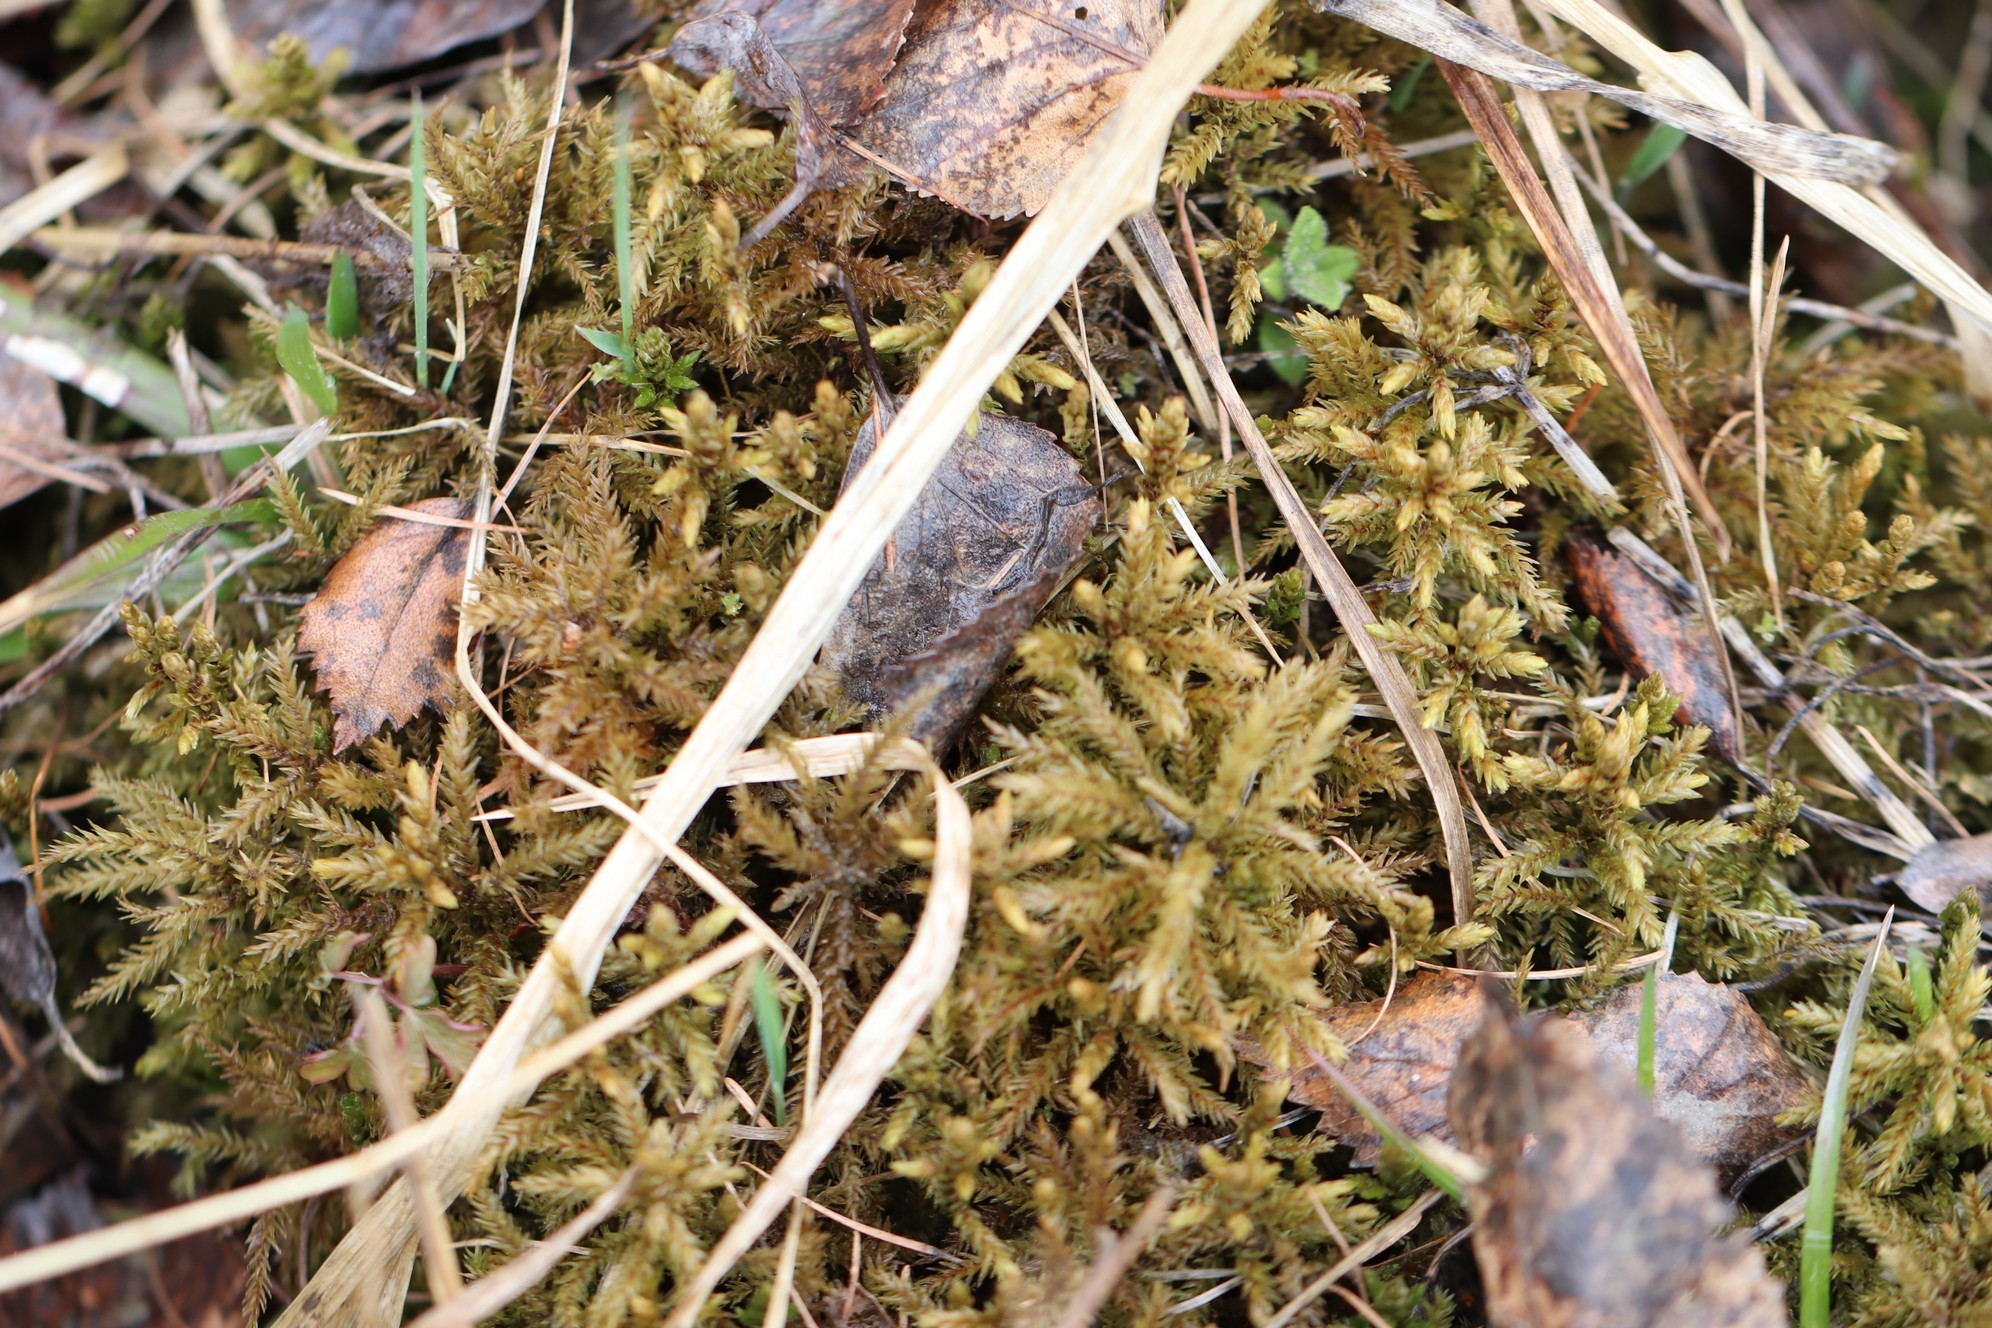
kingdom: Plantae
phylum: Bryophyta
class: Bryopsida
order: Hypnales
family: Climaciaceae
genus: Climacium
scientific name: Climacium dendroides
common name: Northern tree moss
